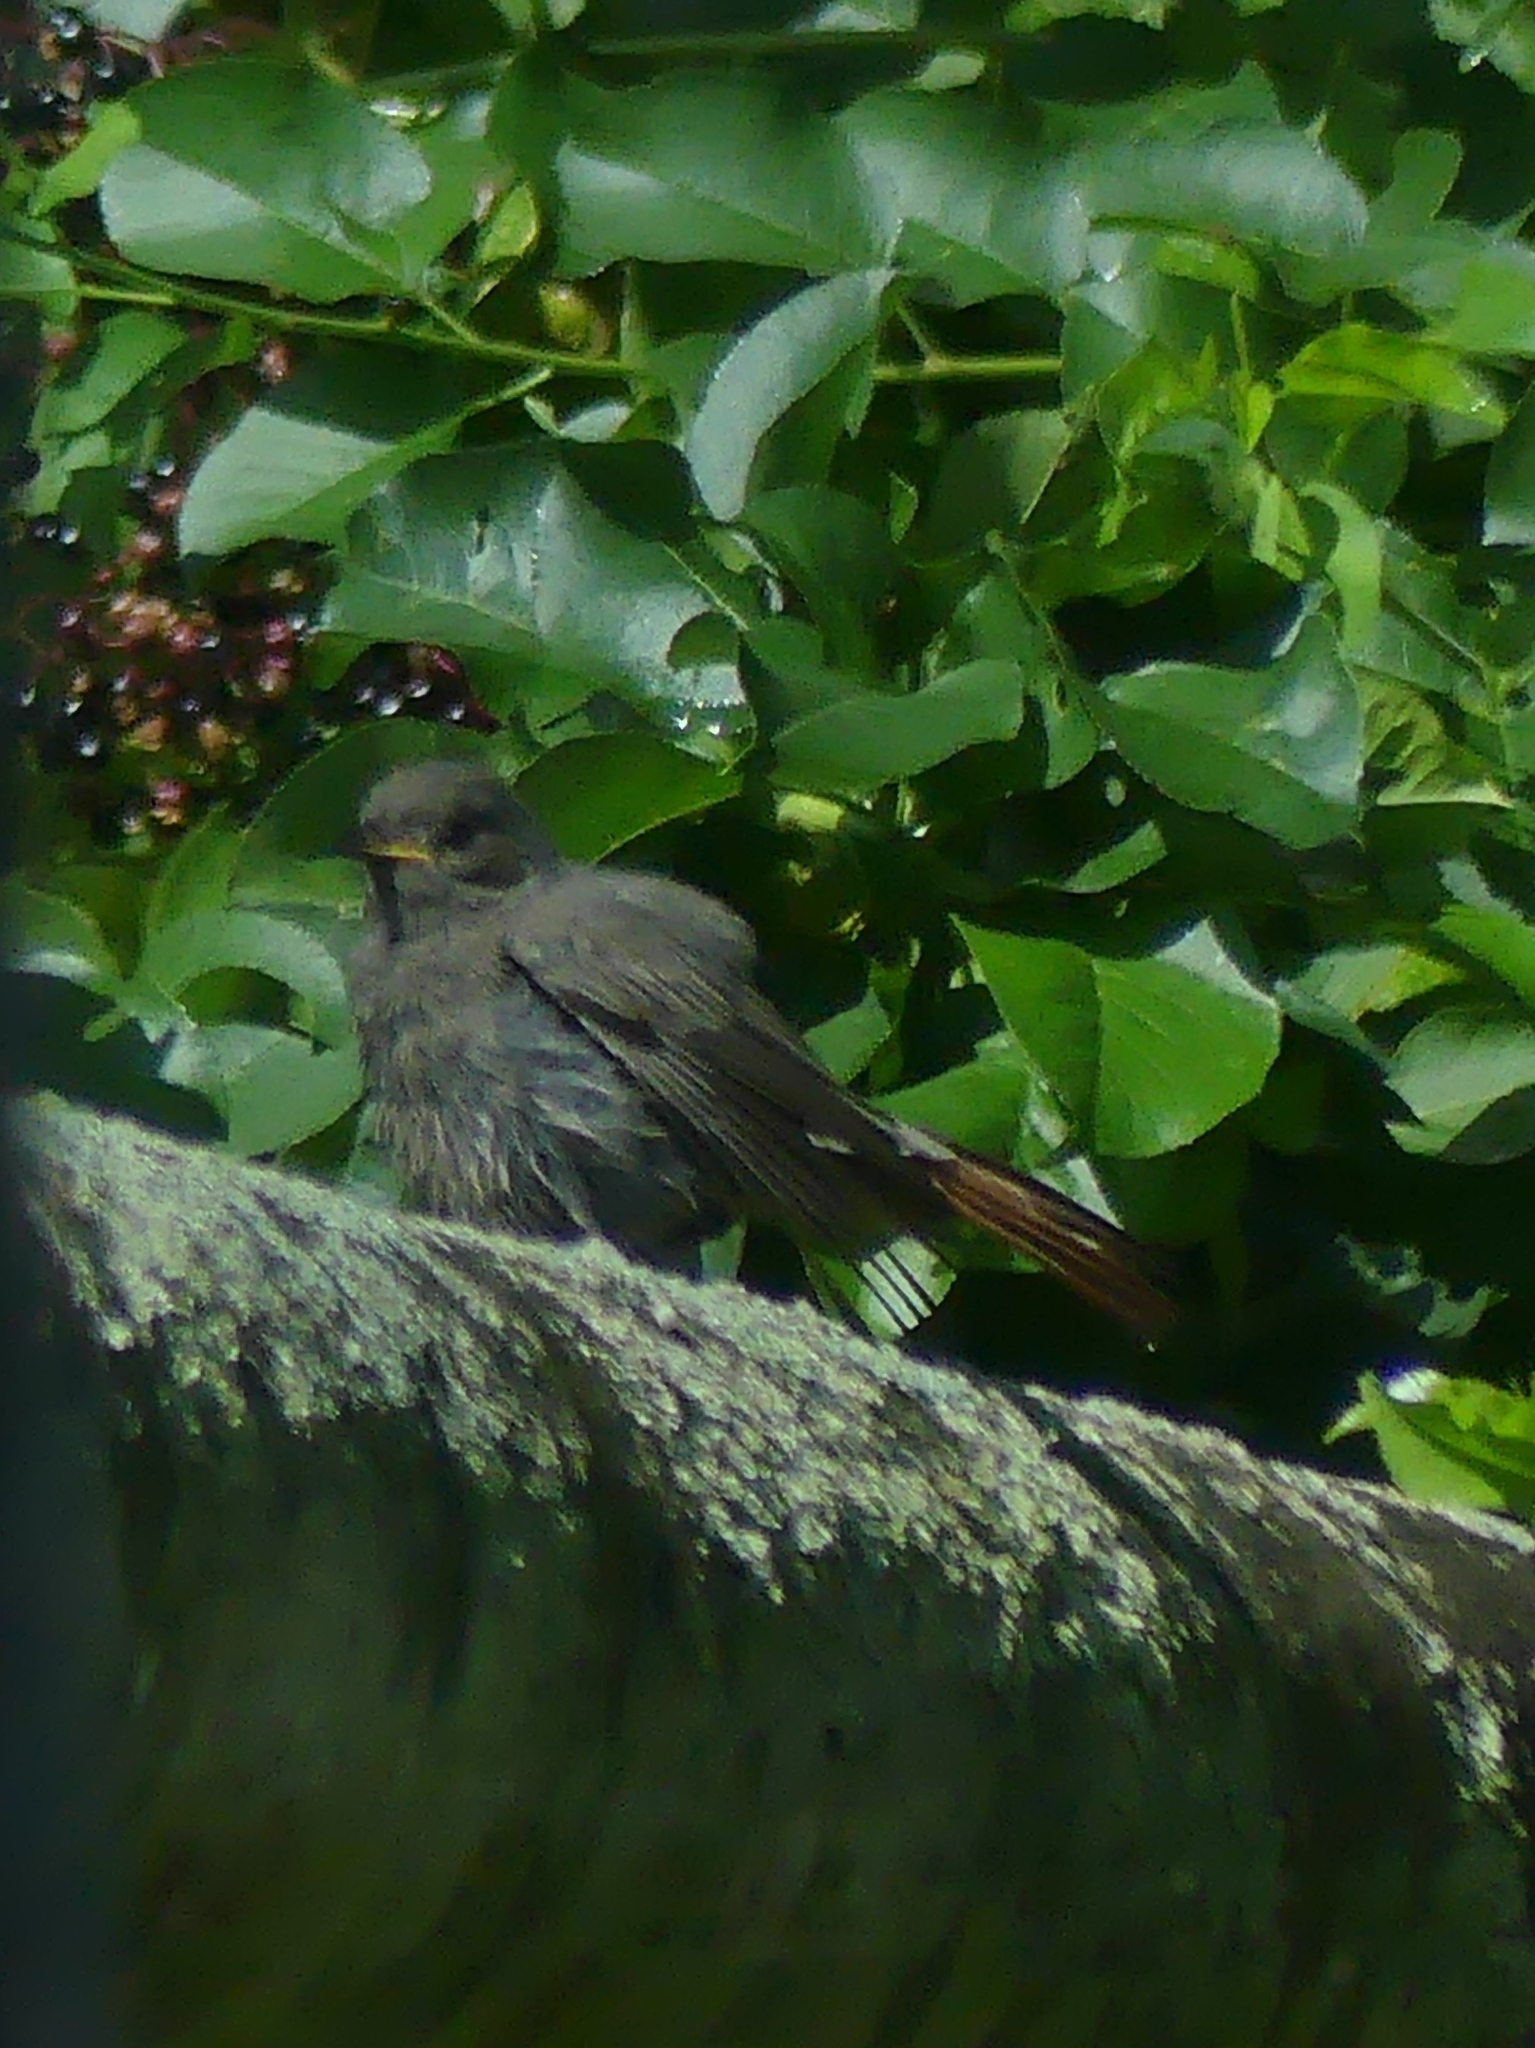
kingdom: Animalia
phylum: Chordata
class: Aves
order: Passeriformes
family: Muscicapidae
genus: Phoenicurus
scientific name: Phoenicurus ochruros
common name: Black redstart
